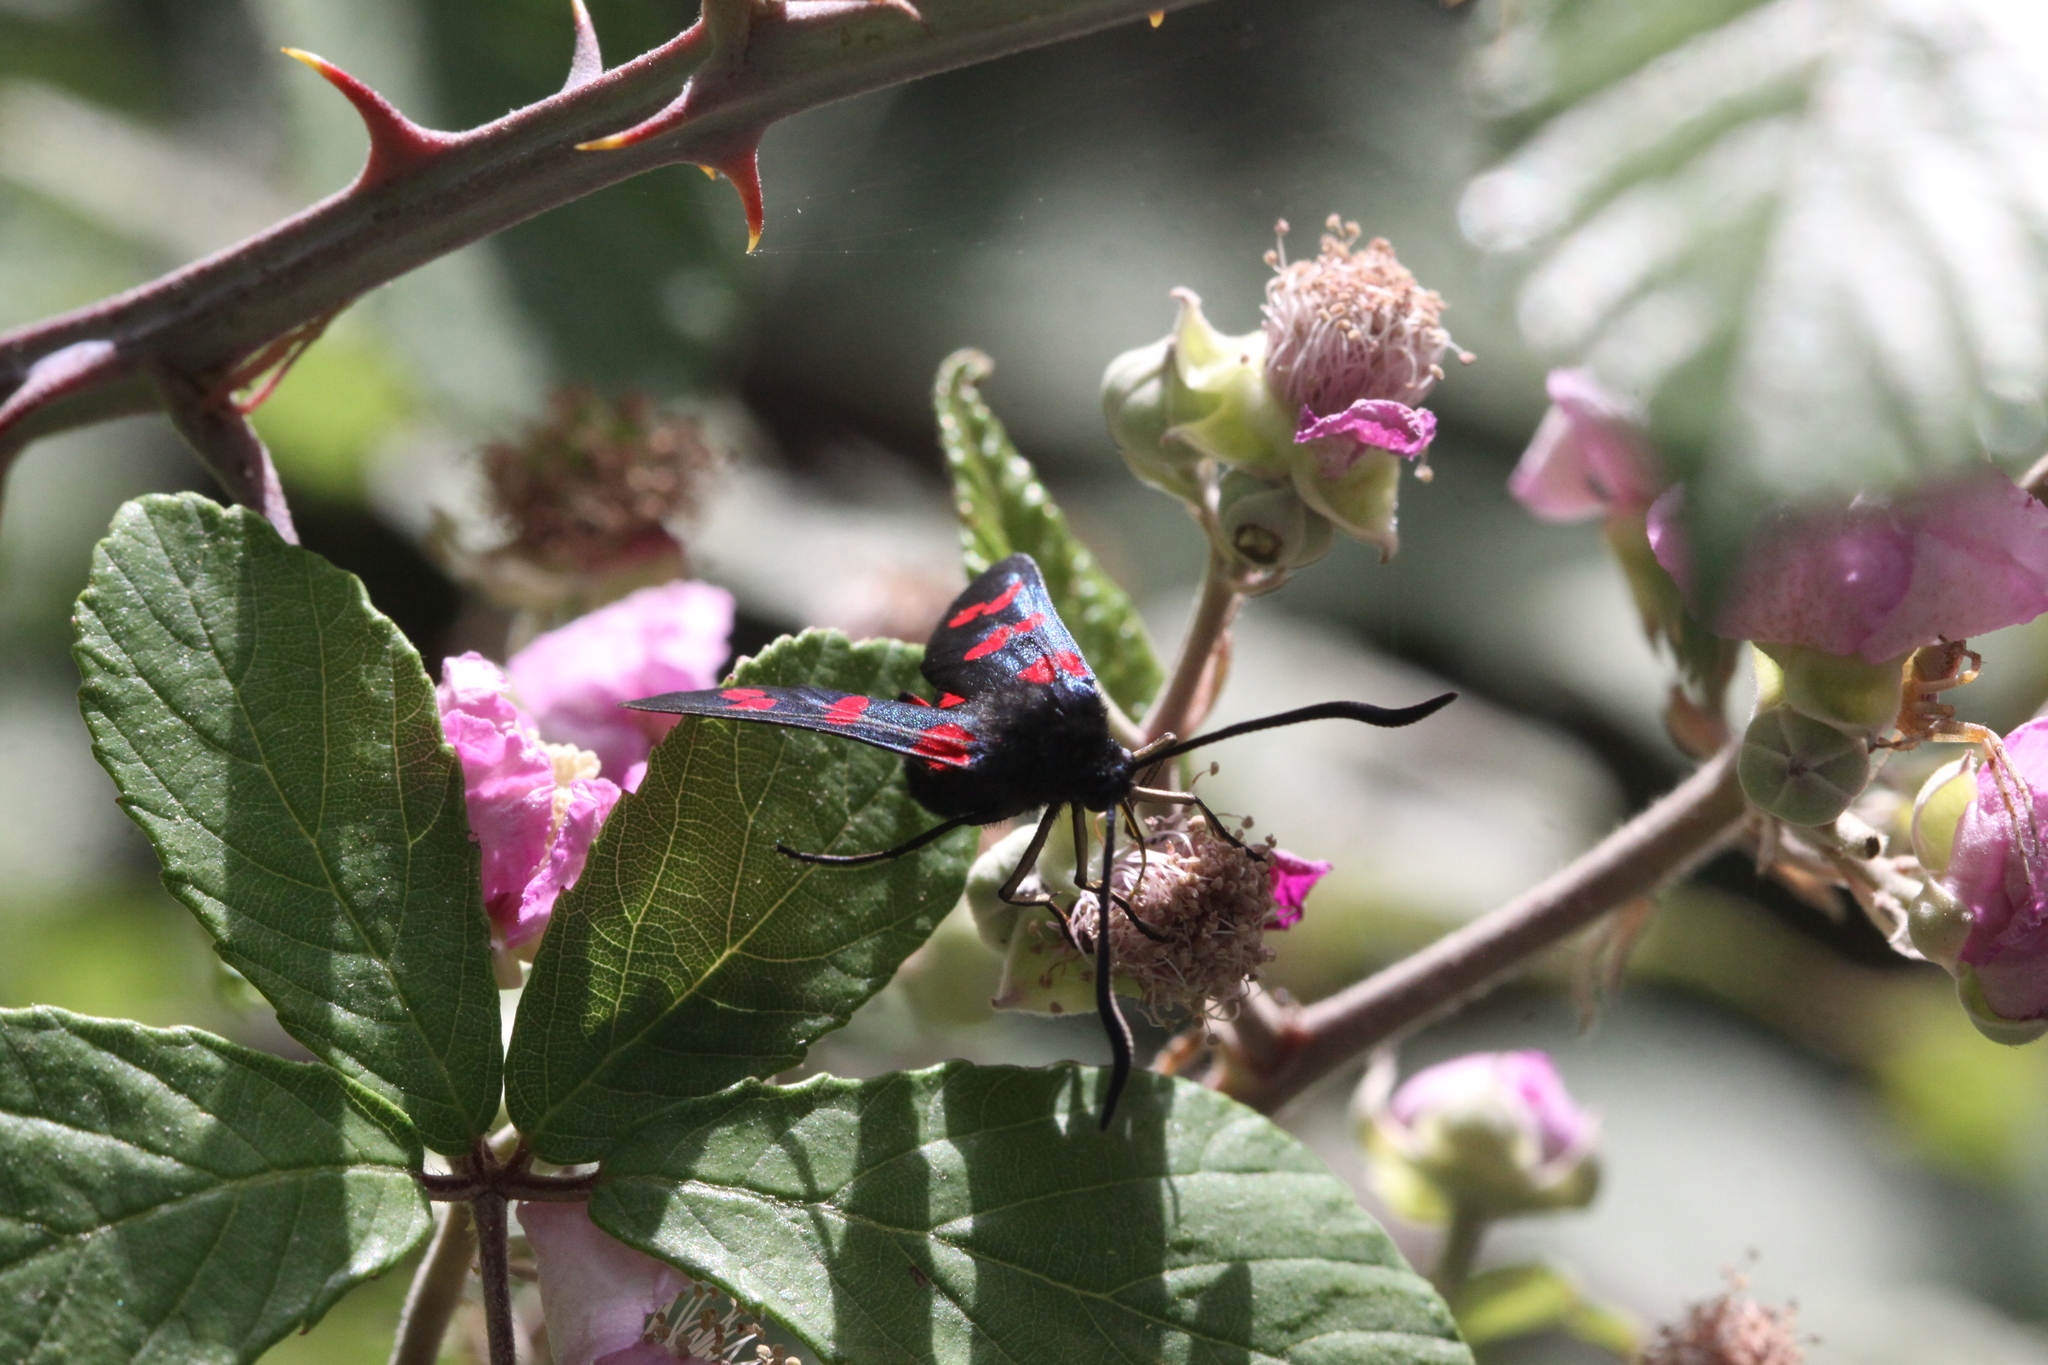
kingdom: Animalia
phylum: Arthropoda
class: Insecta
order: Lepidoptera
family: Zygaenidae
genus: Zygaena
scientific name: Zygaena filipendulae
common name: Six-spot burnet
